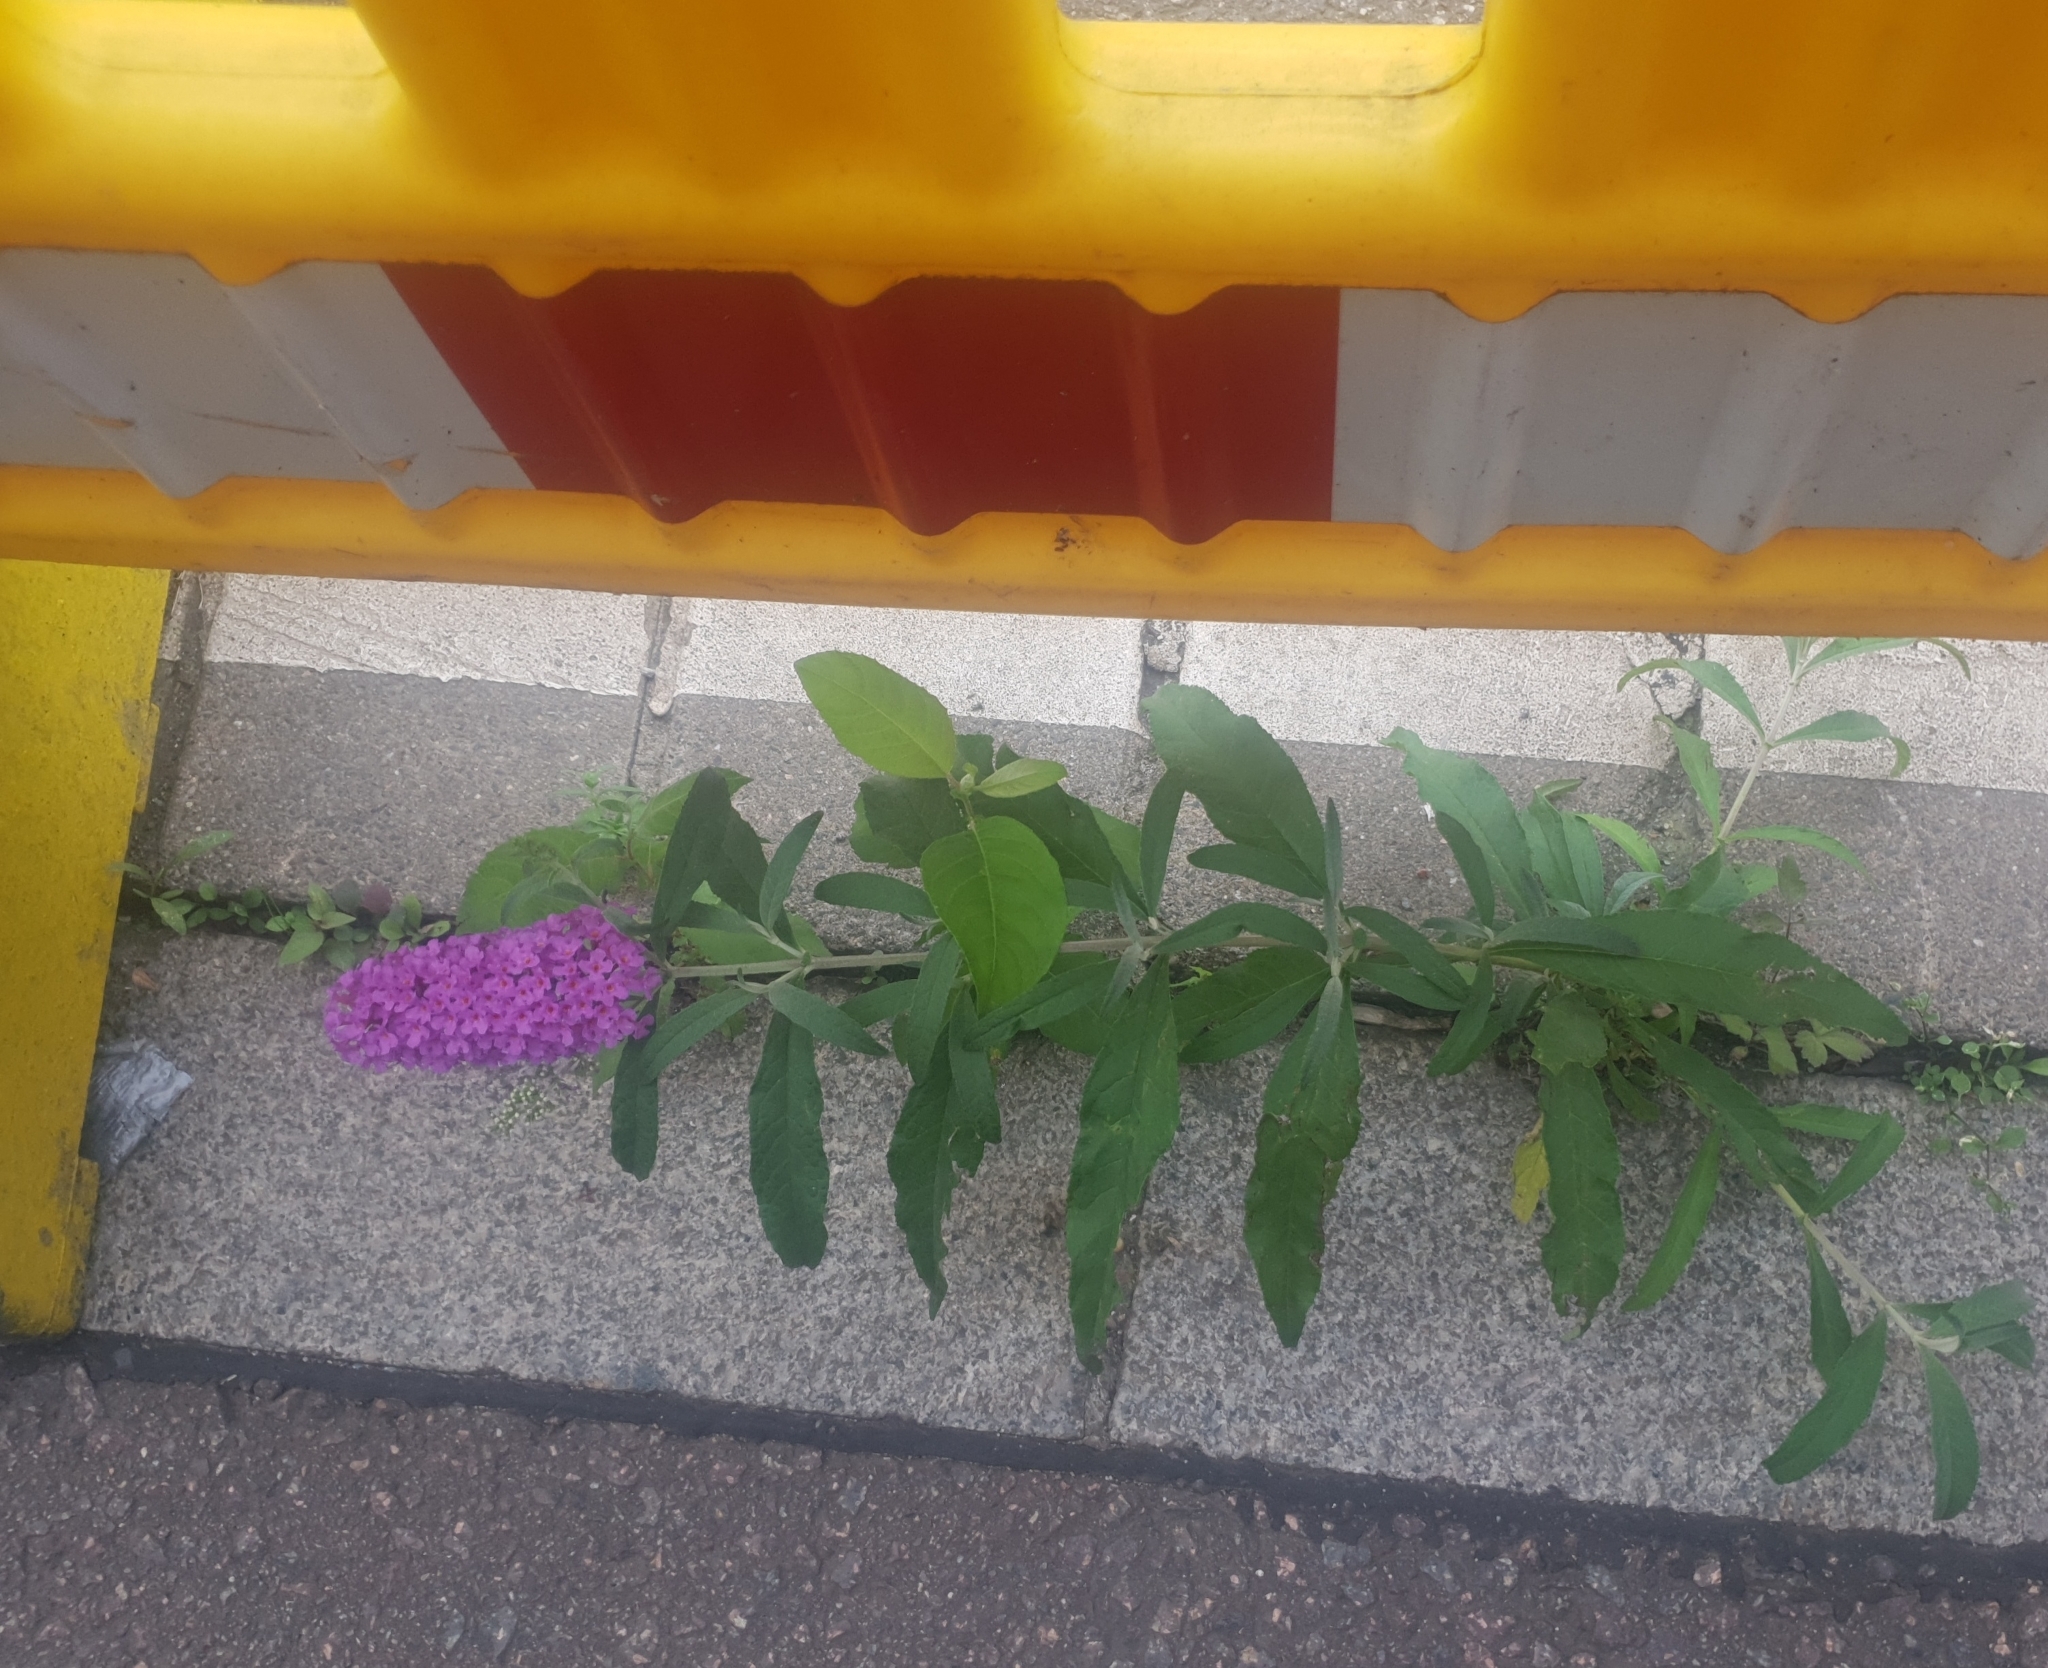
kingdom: Plantae
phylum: Tracheophyta
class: Magnoliopsida
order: Lamiales
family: Scrophulariaceae
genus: Buddleja
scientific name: Buddleja davidii
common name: Butterfly-bush
